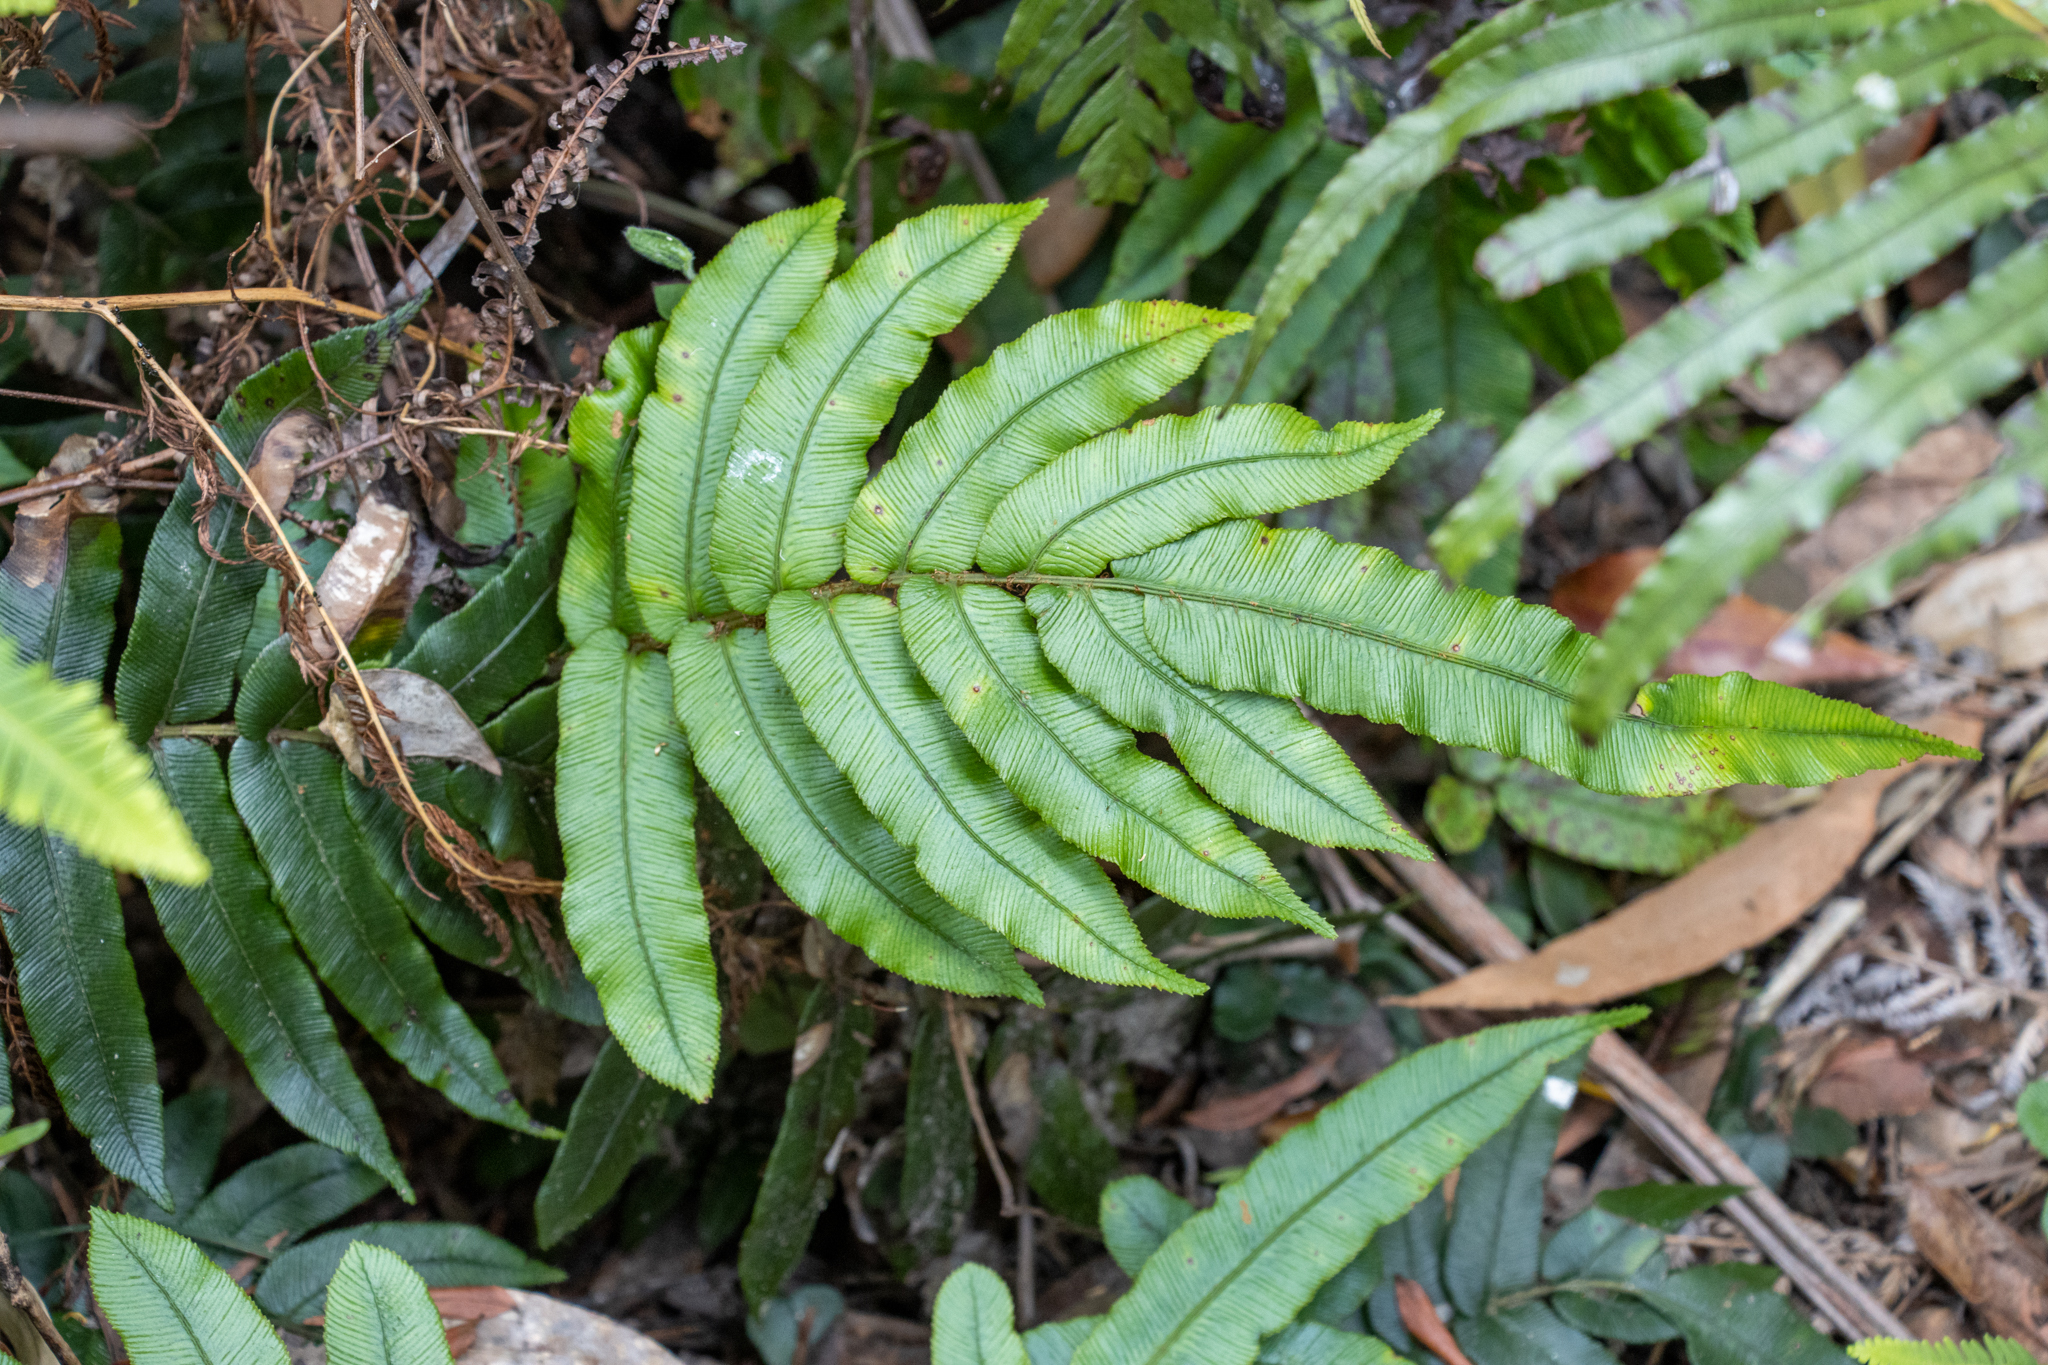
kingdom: Plantae
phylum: Tracheophyta
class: Polypodiopsida
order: Polypodiales
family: Blechnaceae
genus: Parablechnum
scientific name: Parablechnum wattsii
